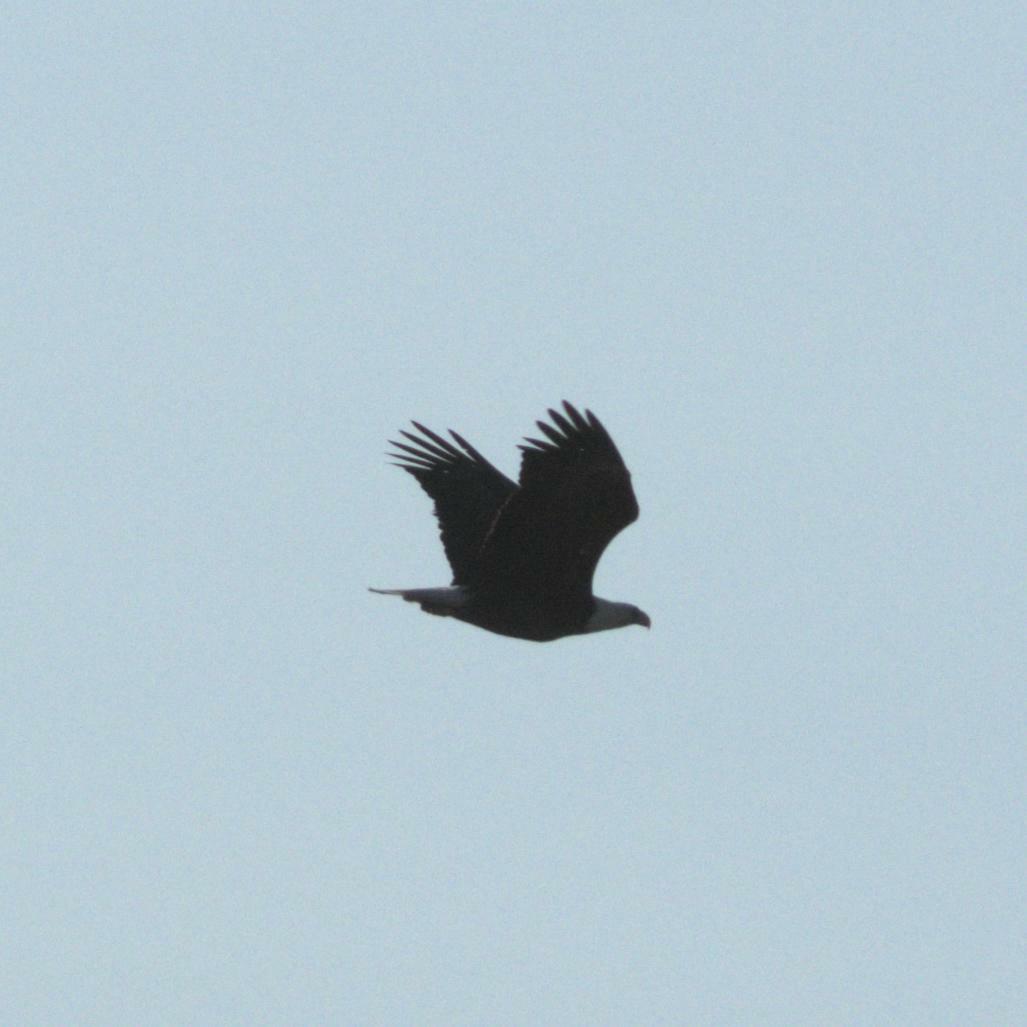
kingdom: Animalia
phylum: Chordata
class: Aves
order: Accipitriformes
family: Accipitridae
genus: Haliaeetus
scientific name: Haliaeetus leucocephalus
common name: Bald eagle
